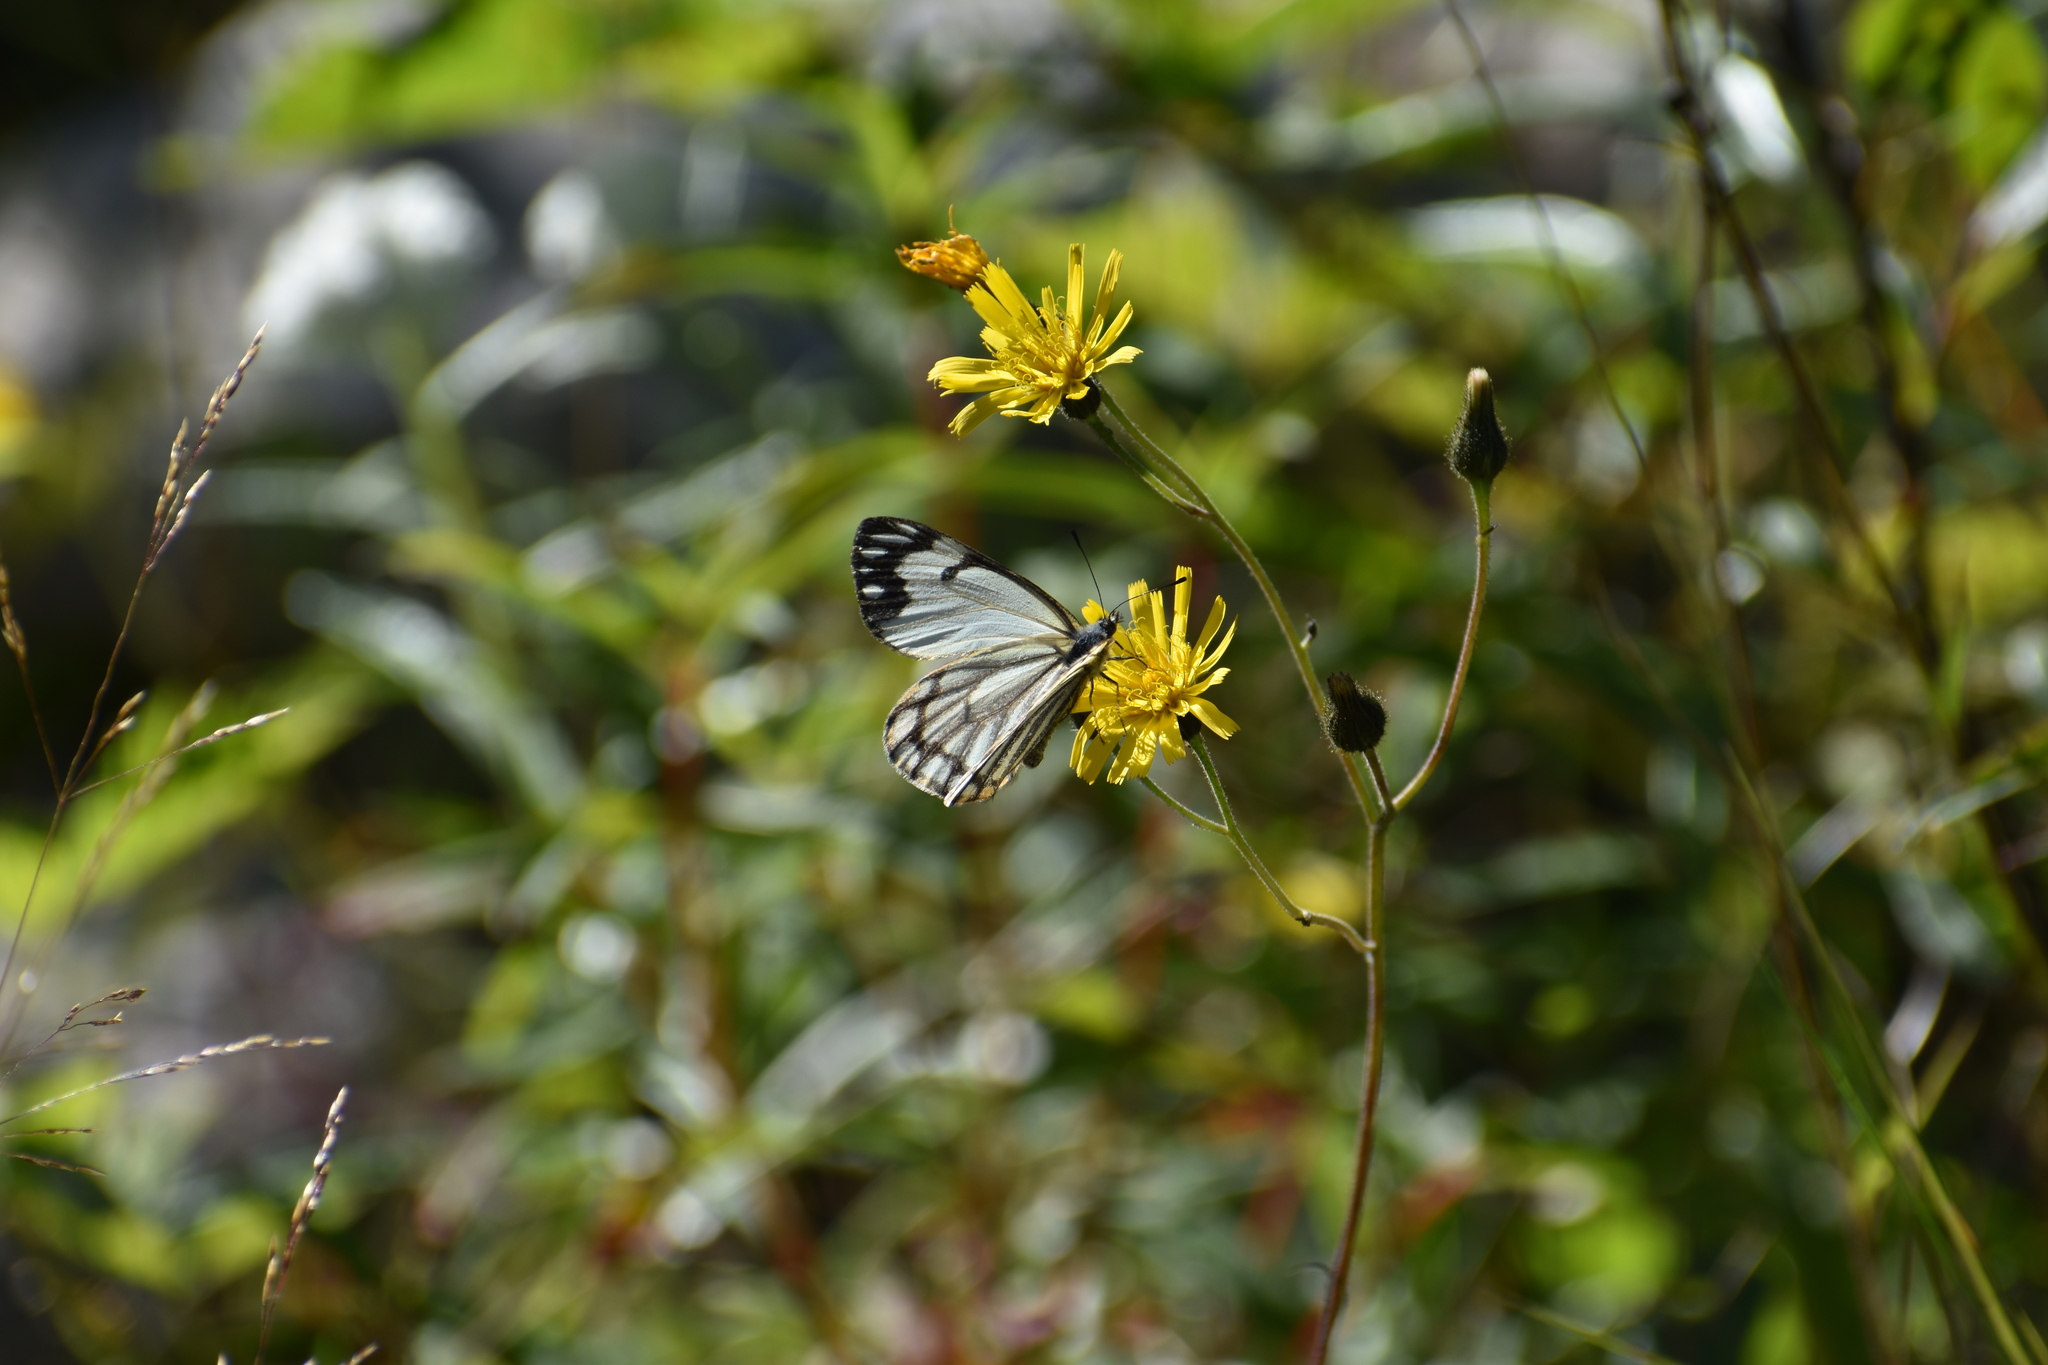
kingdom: Animalia
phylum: Arthropoda
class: Insecta
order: Lepidoptera
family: Pieridae
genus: Neophasia
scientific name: Neophasia menapia
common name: Pine white
